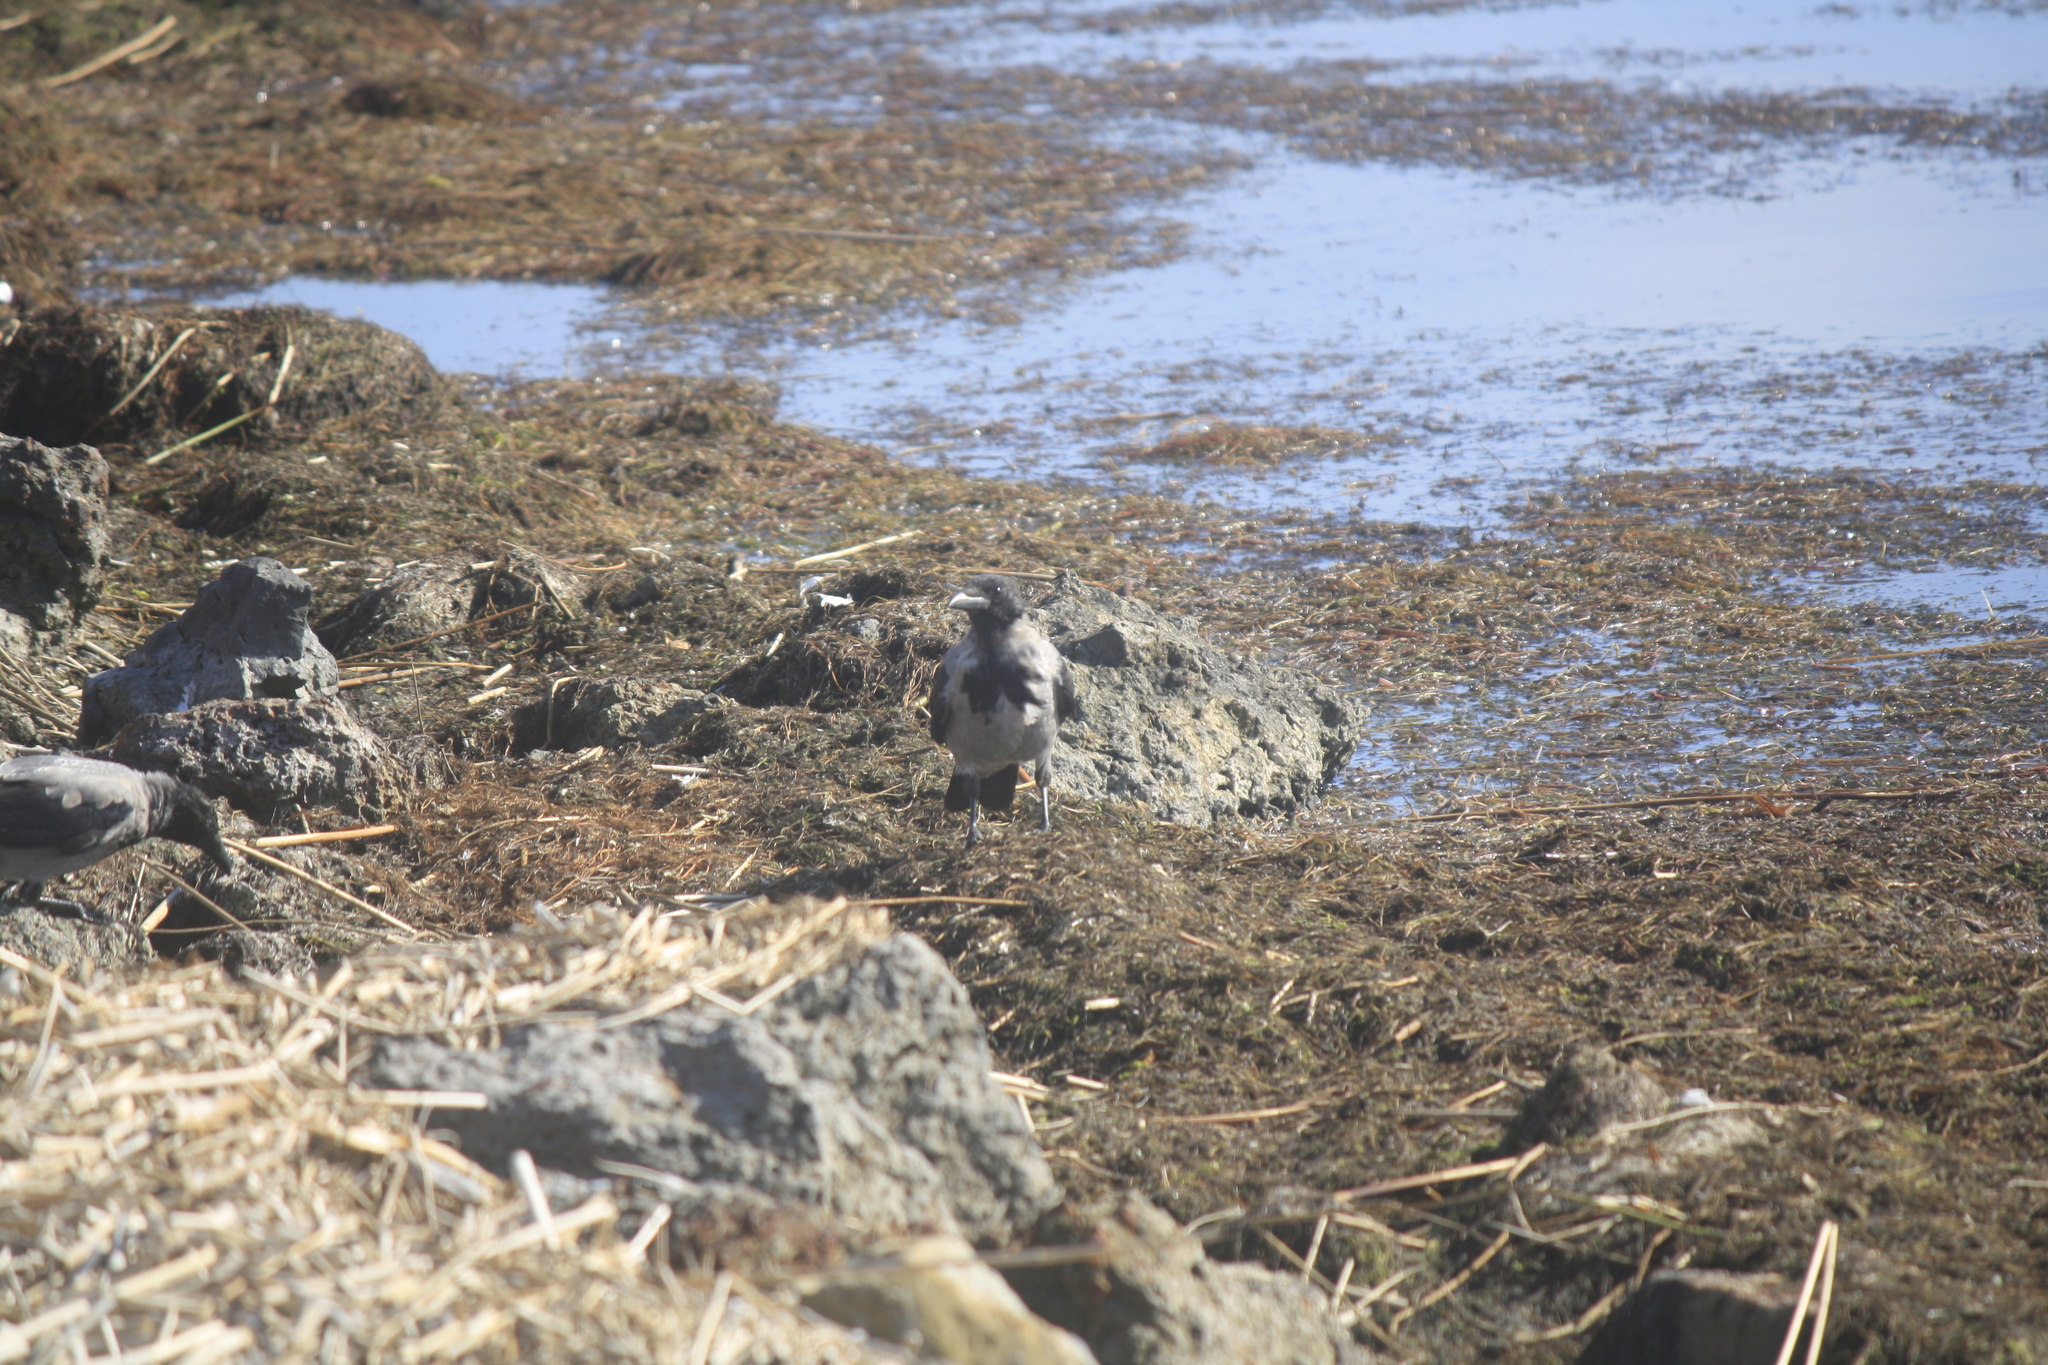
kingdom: Animalia
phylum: Chordata
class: Aves
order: Passeriformes
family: Corvidae
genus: Corvus
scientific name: Corvus cornix
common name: Hooded crow
